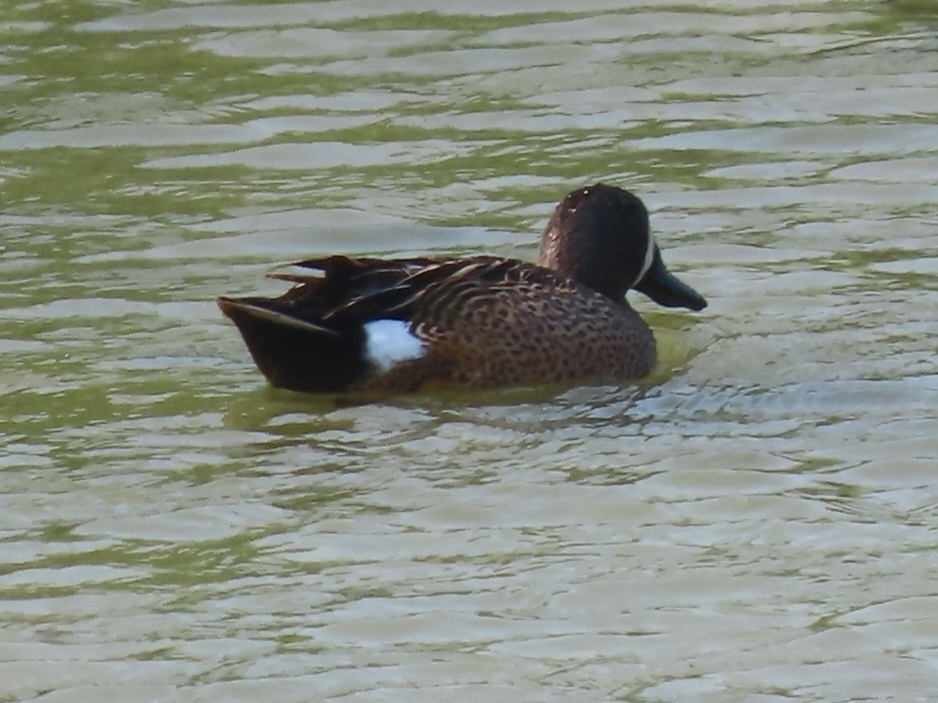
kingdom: Animalia
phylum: Chordata
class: Aves
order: Anseriformes
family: Anatidae
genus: Spatula
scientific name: Spatula discors
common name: Blue-winged teal
